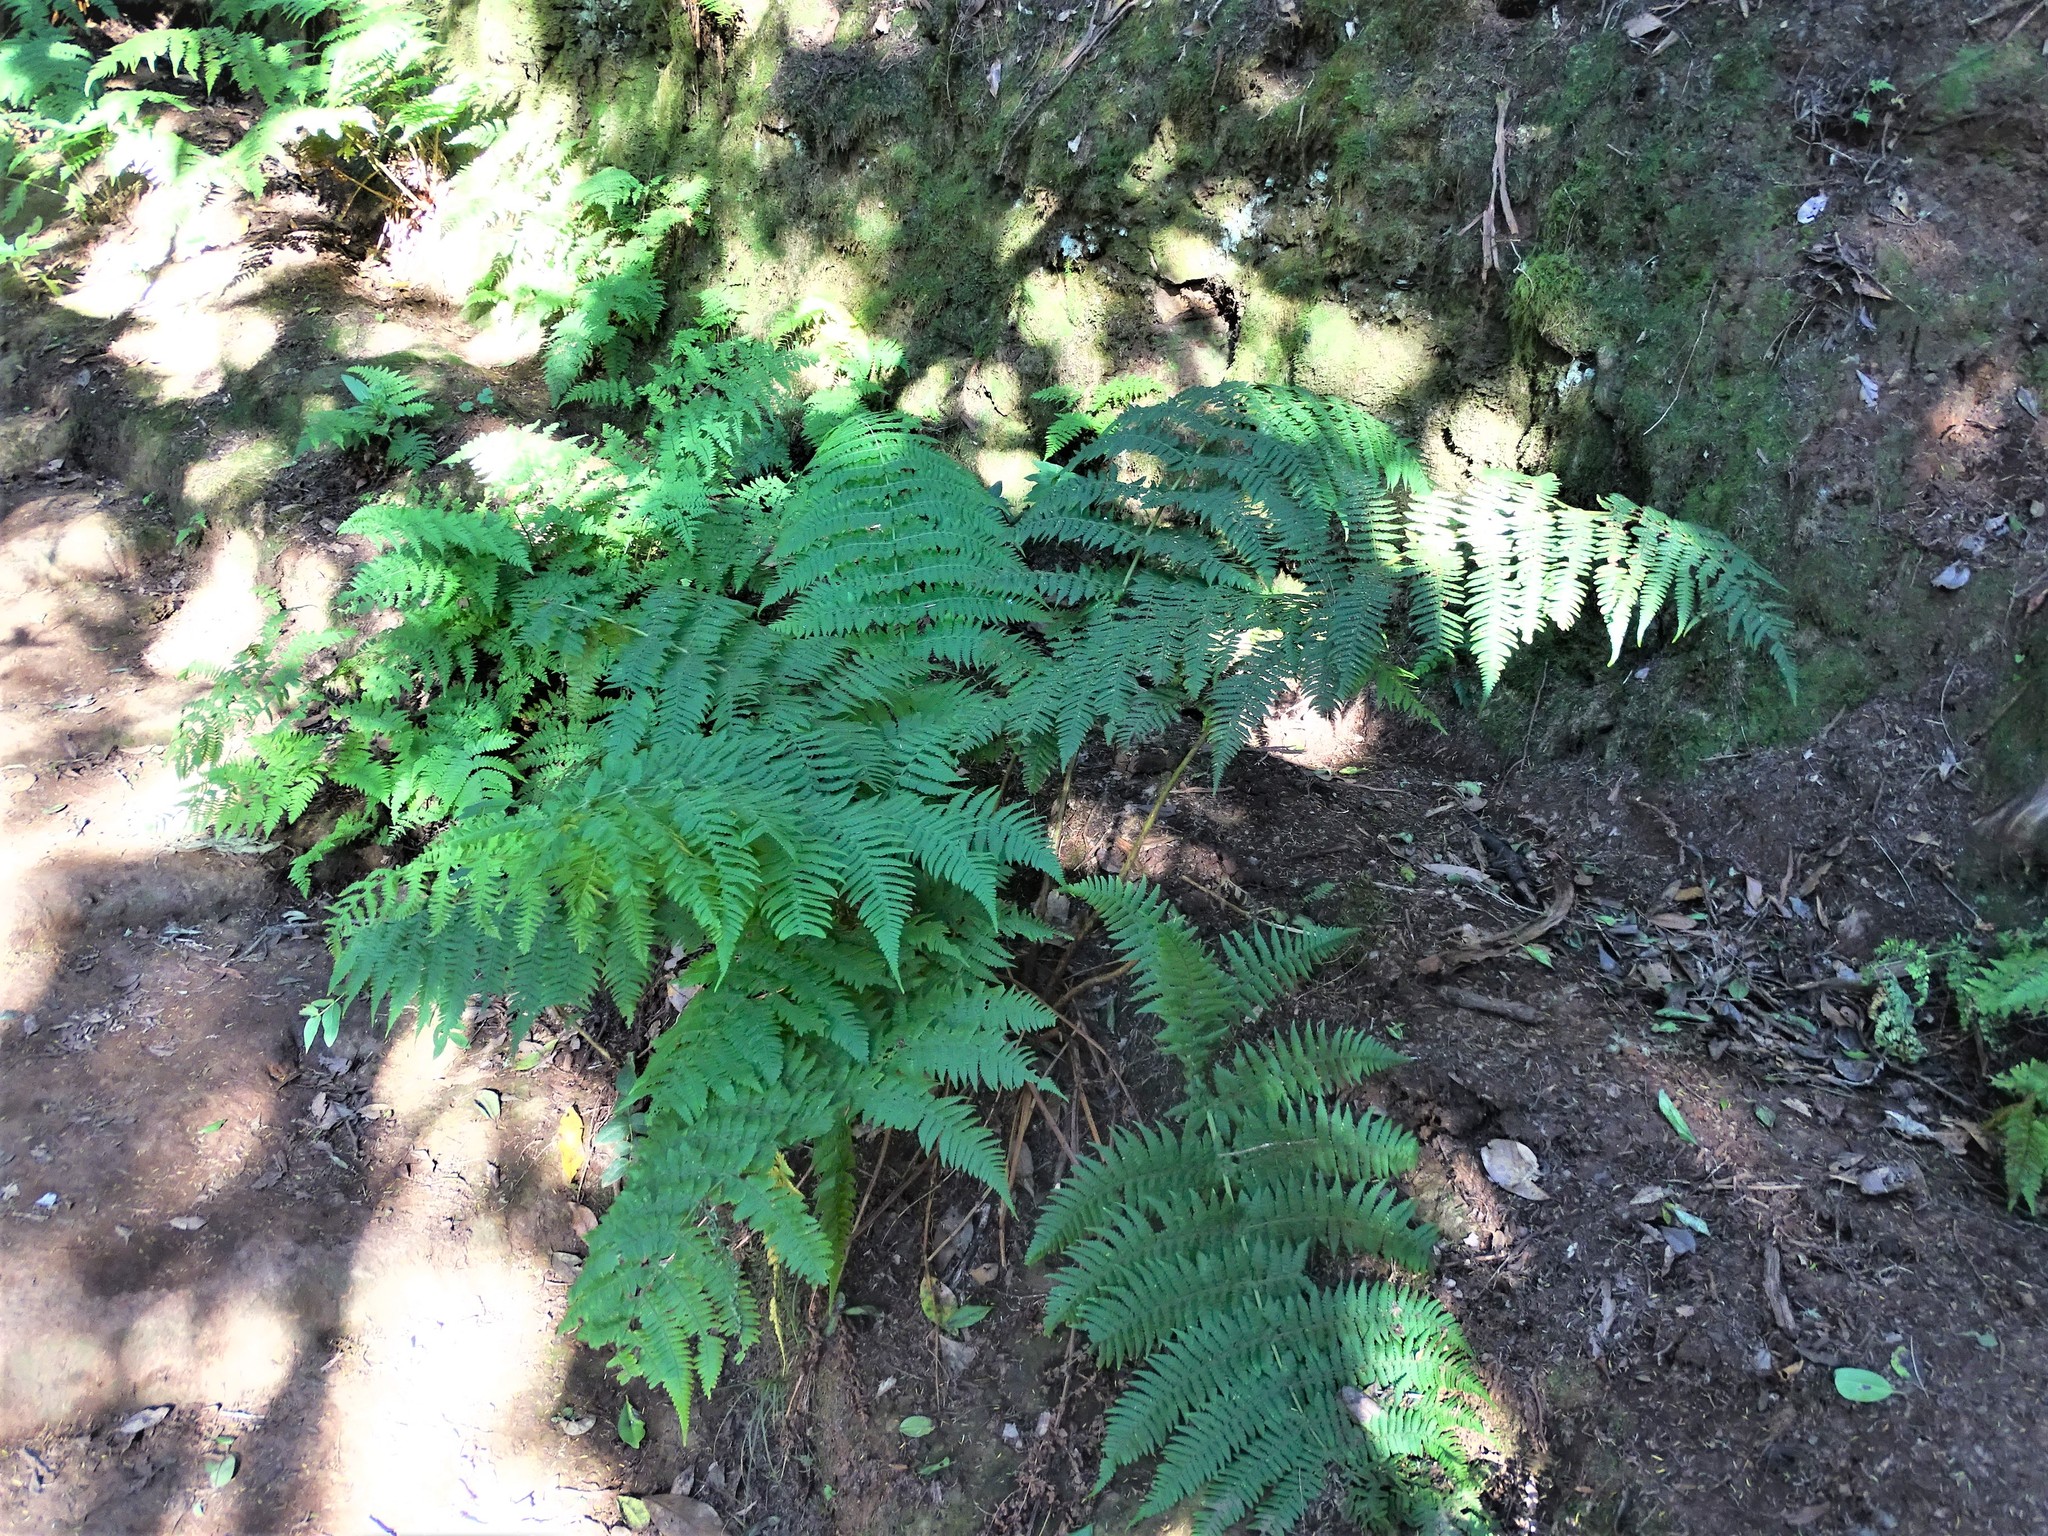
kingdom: Plantae
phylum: Tracheophyta
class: Polypodiopsida
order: Polypodiales
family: Dryopteridaceae
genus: Dryopteris
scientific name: Dryopteris oligodonta
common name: Canarian male-fern
